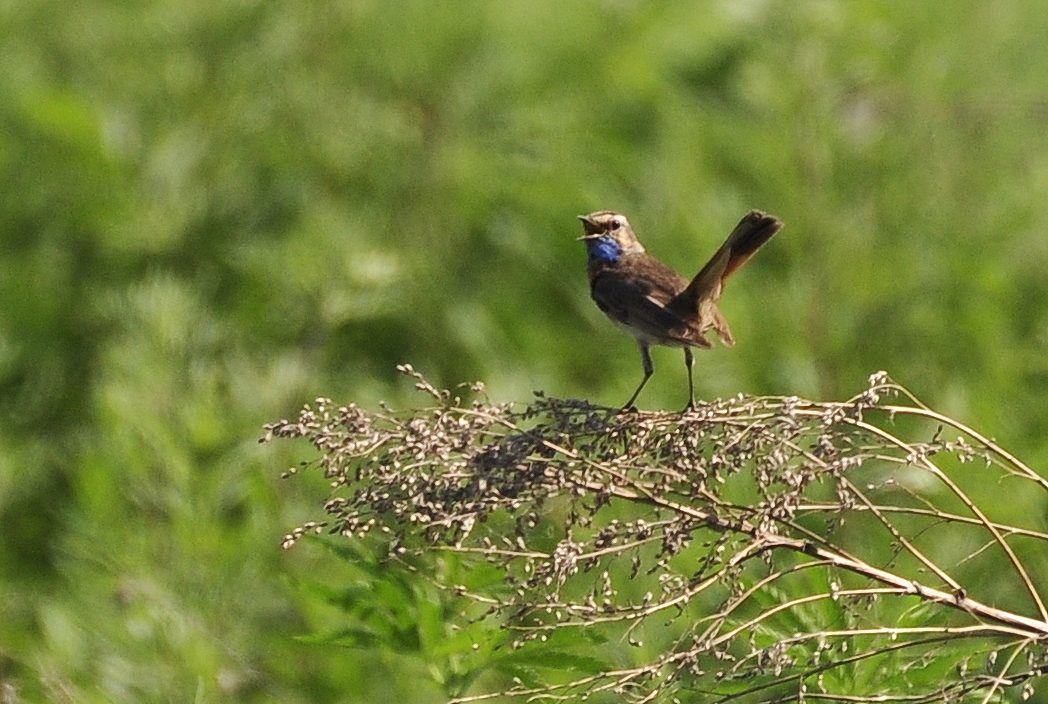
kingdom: Animalia
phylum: Chordata
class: Aves
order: Passeriformes
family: Muscicapidae
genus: Luscinia
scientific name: Luscinia svecica
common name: Bluethroat
